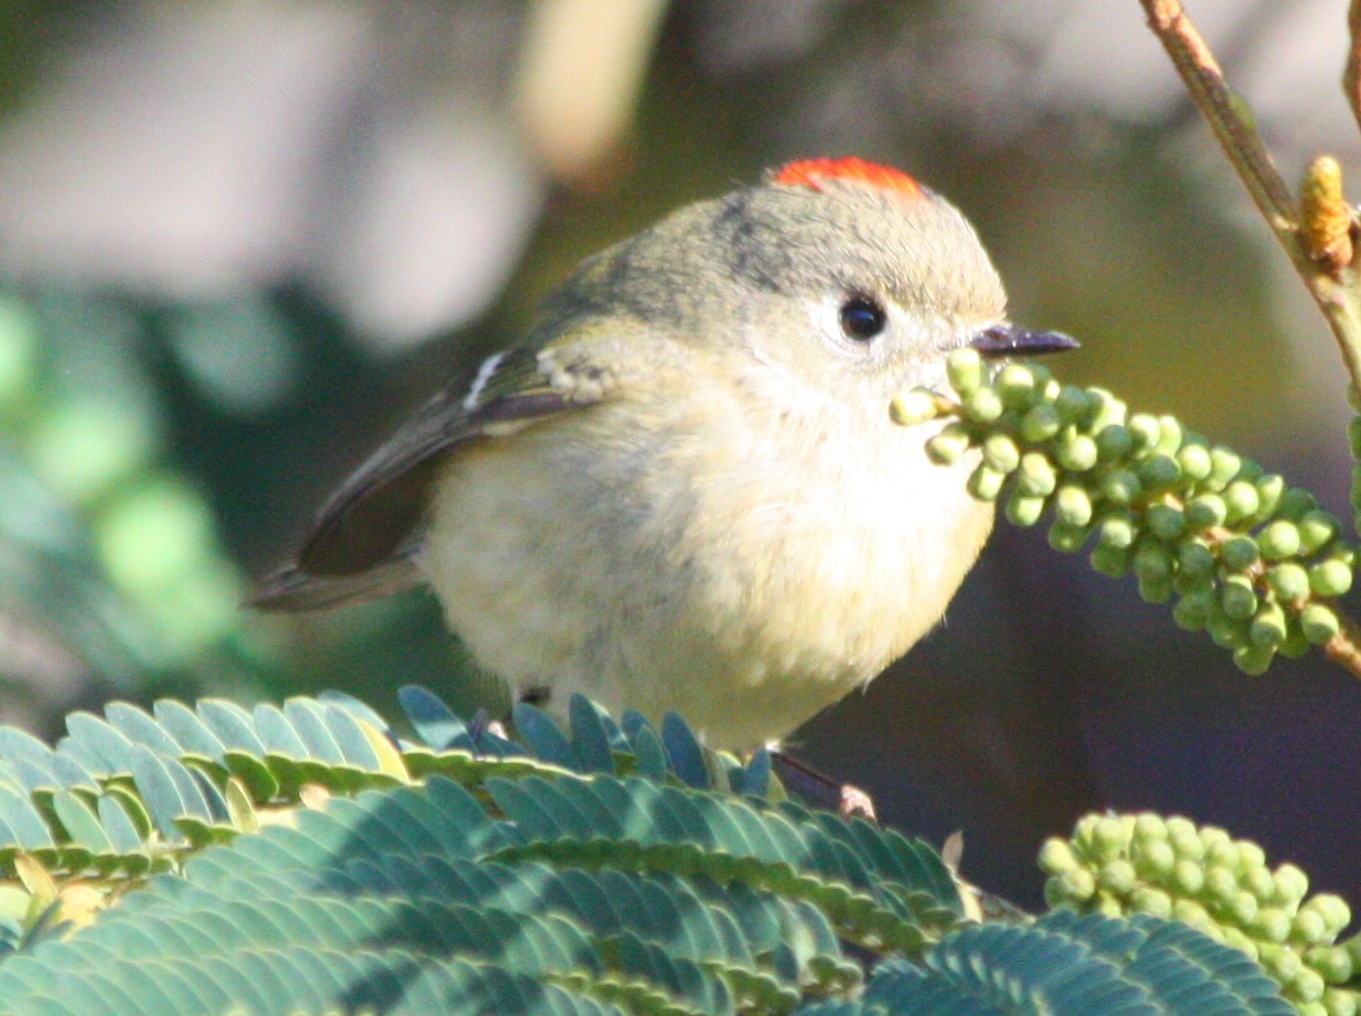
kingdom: Animalia
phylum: Chordata
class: Aves
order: Passeriformes
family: Regulidae
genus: Regulus
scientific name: Regulus calendula
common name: Ruby-crowned kinglet
